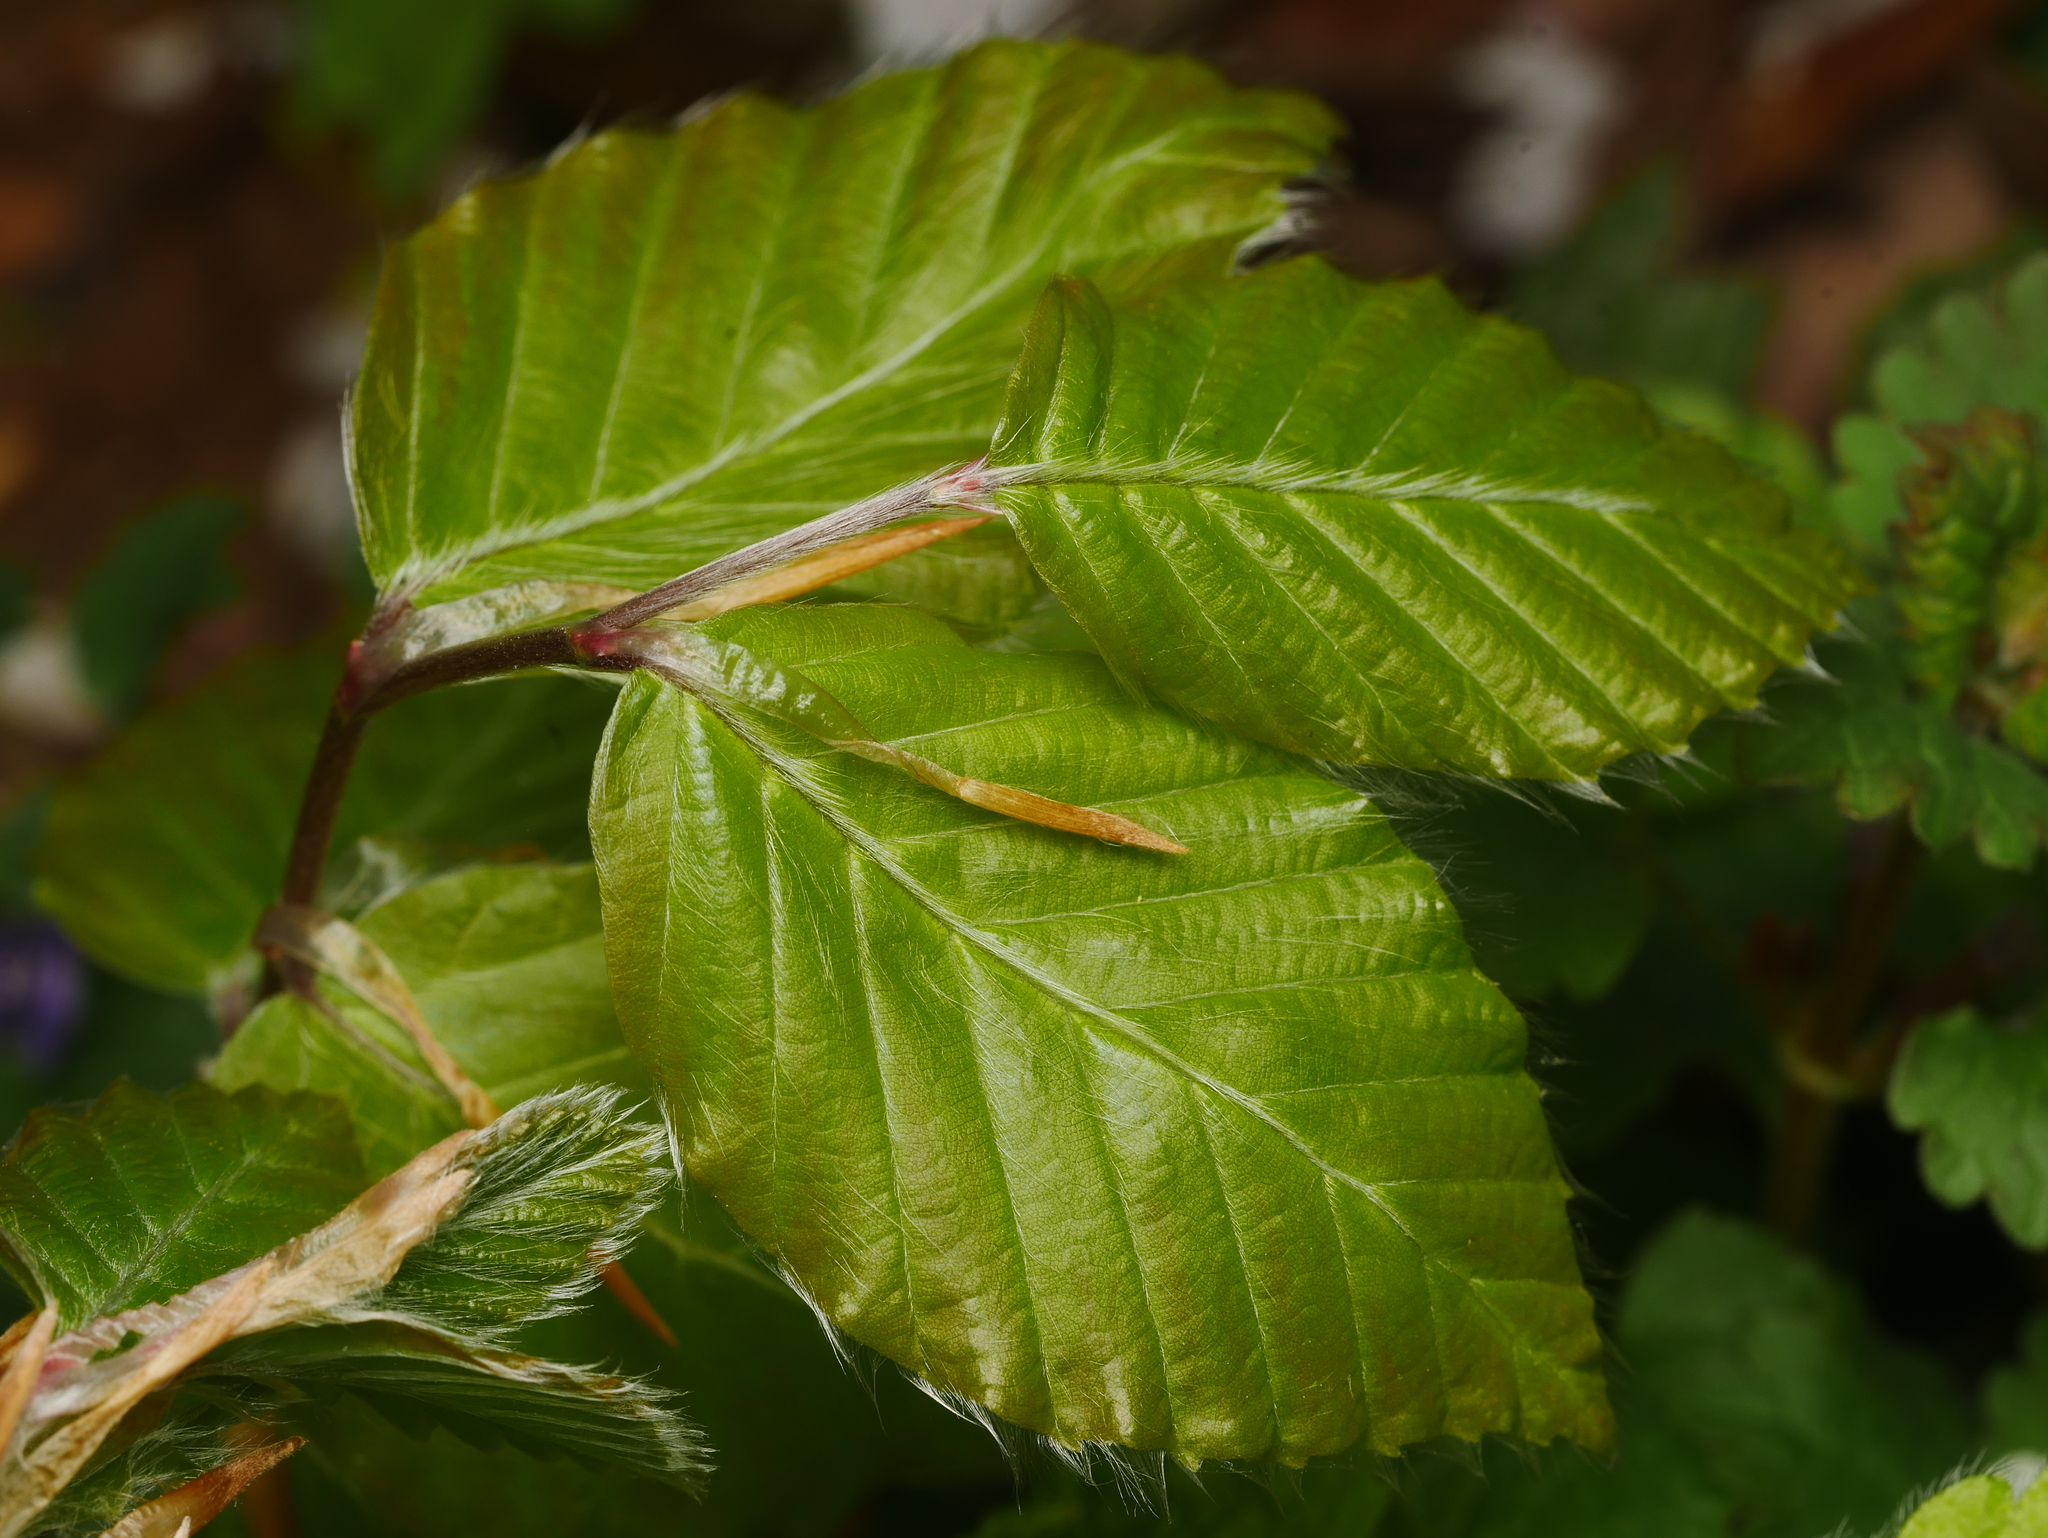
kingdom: Plantae
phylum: Tracheophyta
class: Magnoliopsida
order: Fagales
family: Fagaceae
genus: Fagus
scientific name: Fagus sylvatica
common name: Beech
